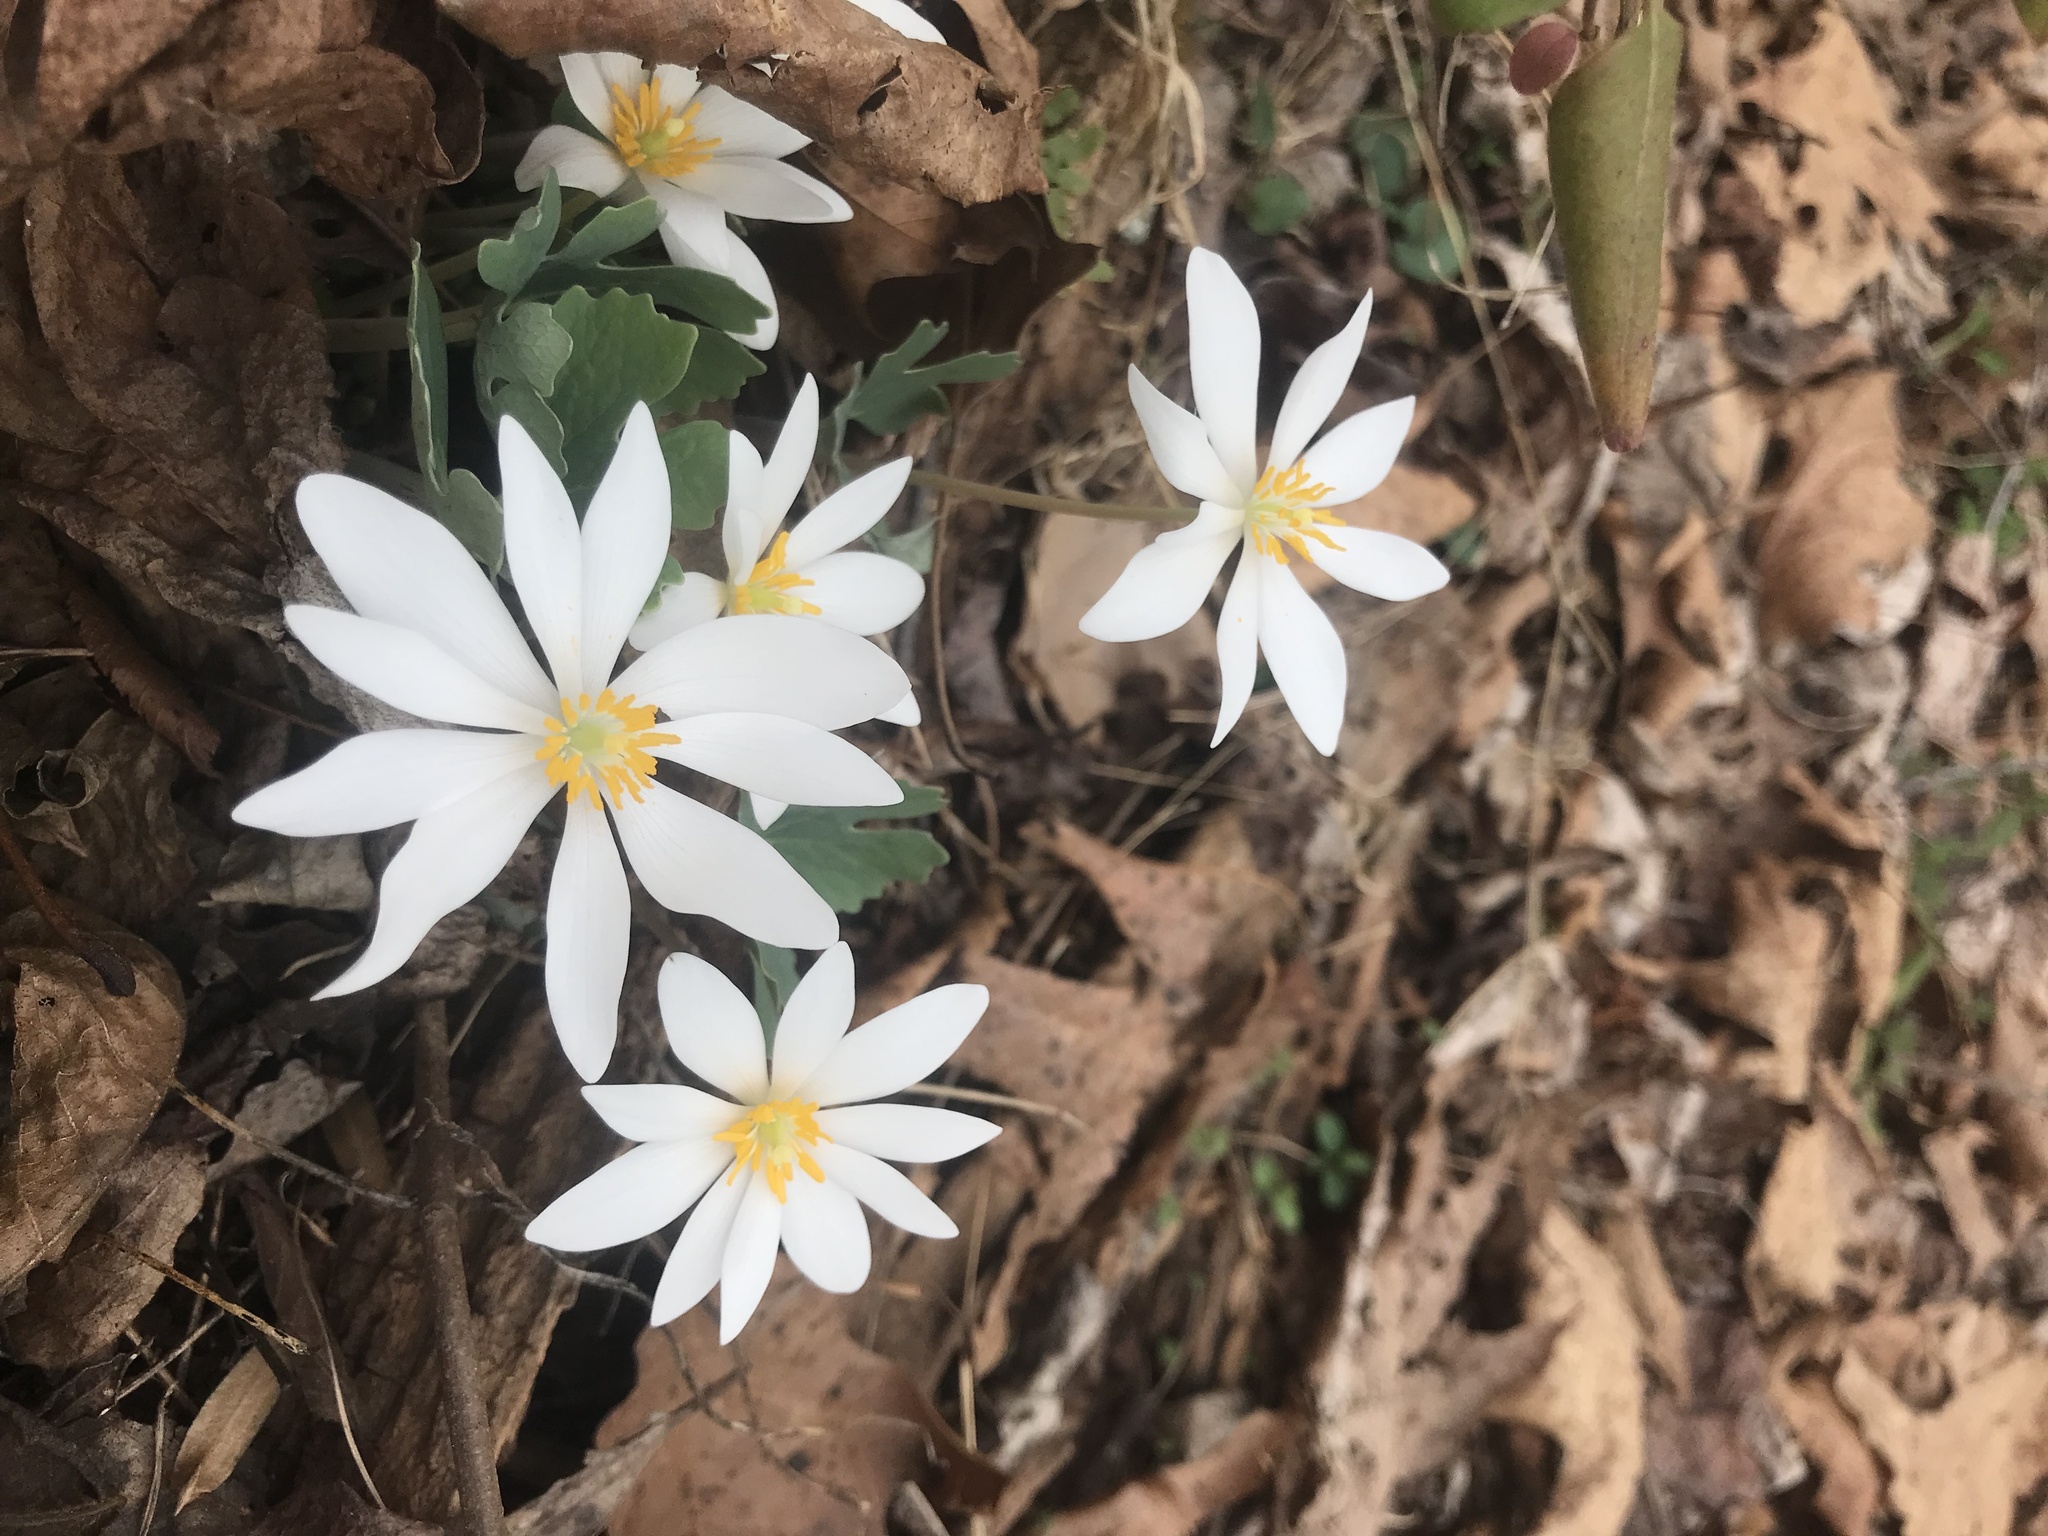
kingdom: Plantae
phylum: Tracheophyta
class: Magnoliopsida
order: Ranunculales
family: Papaveraceae
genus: Sanguinaria
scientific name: Sanguinaria canadensis
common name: Bloodroot
